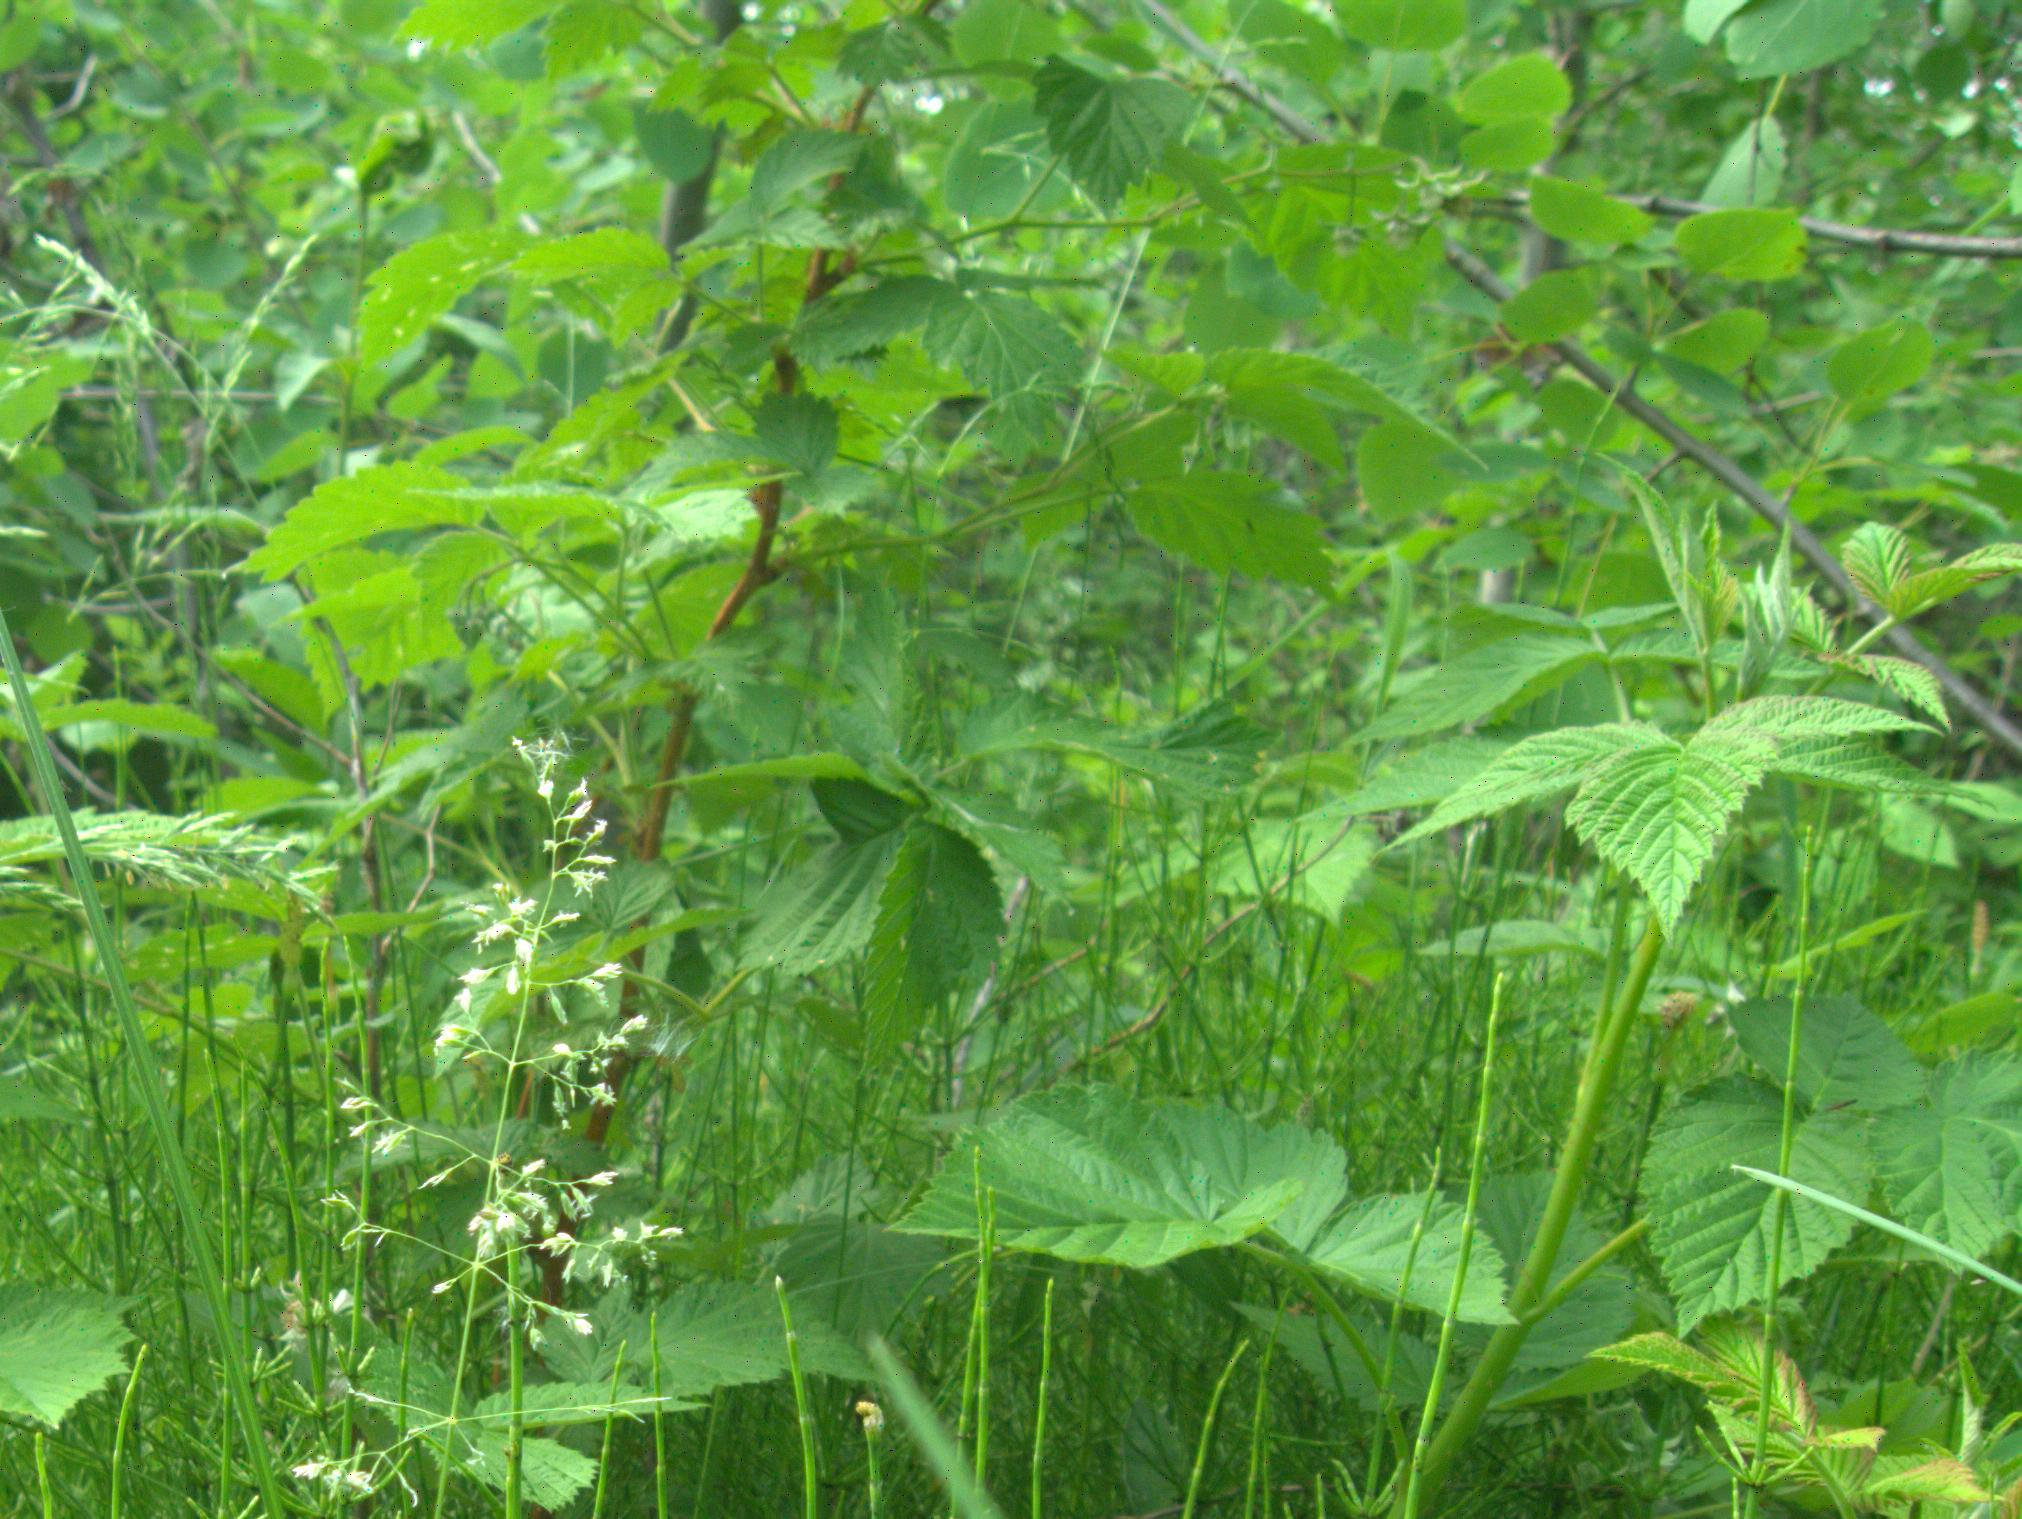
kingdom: Plantae
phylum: Tracheophyta
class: Magnoliopsida
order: Rosales
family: Rosaceae
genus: Rubus
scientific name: Rubus idaeus
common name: Raspberry
